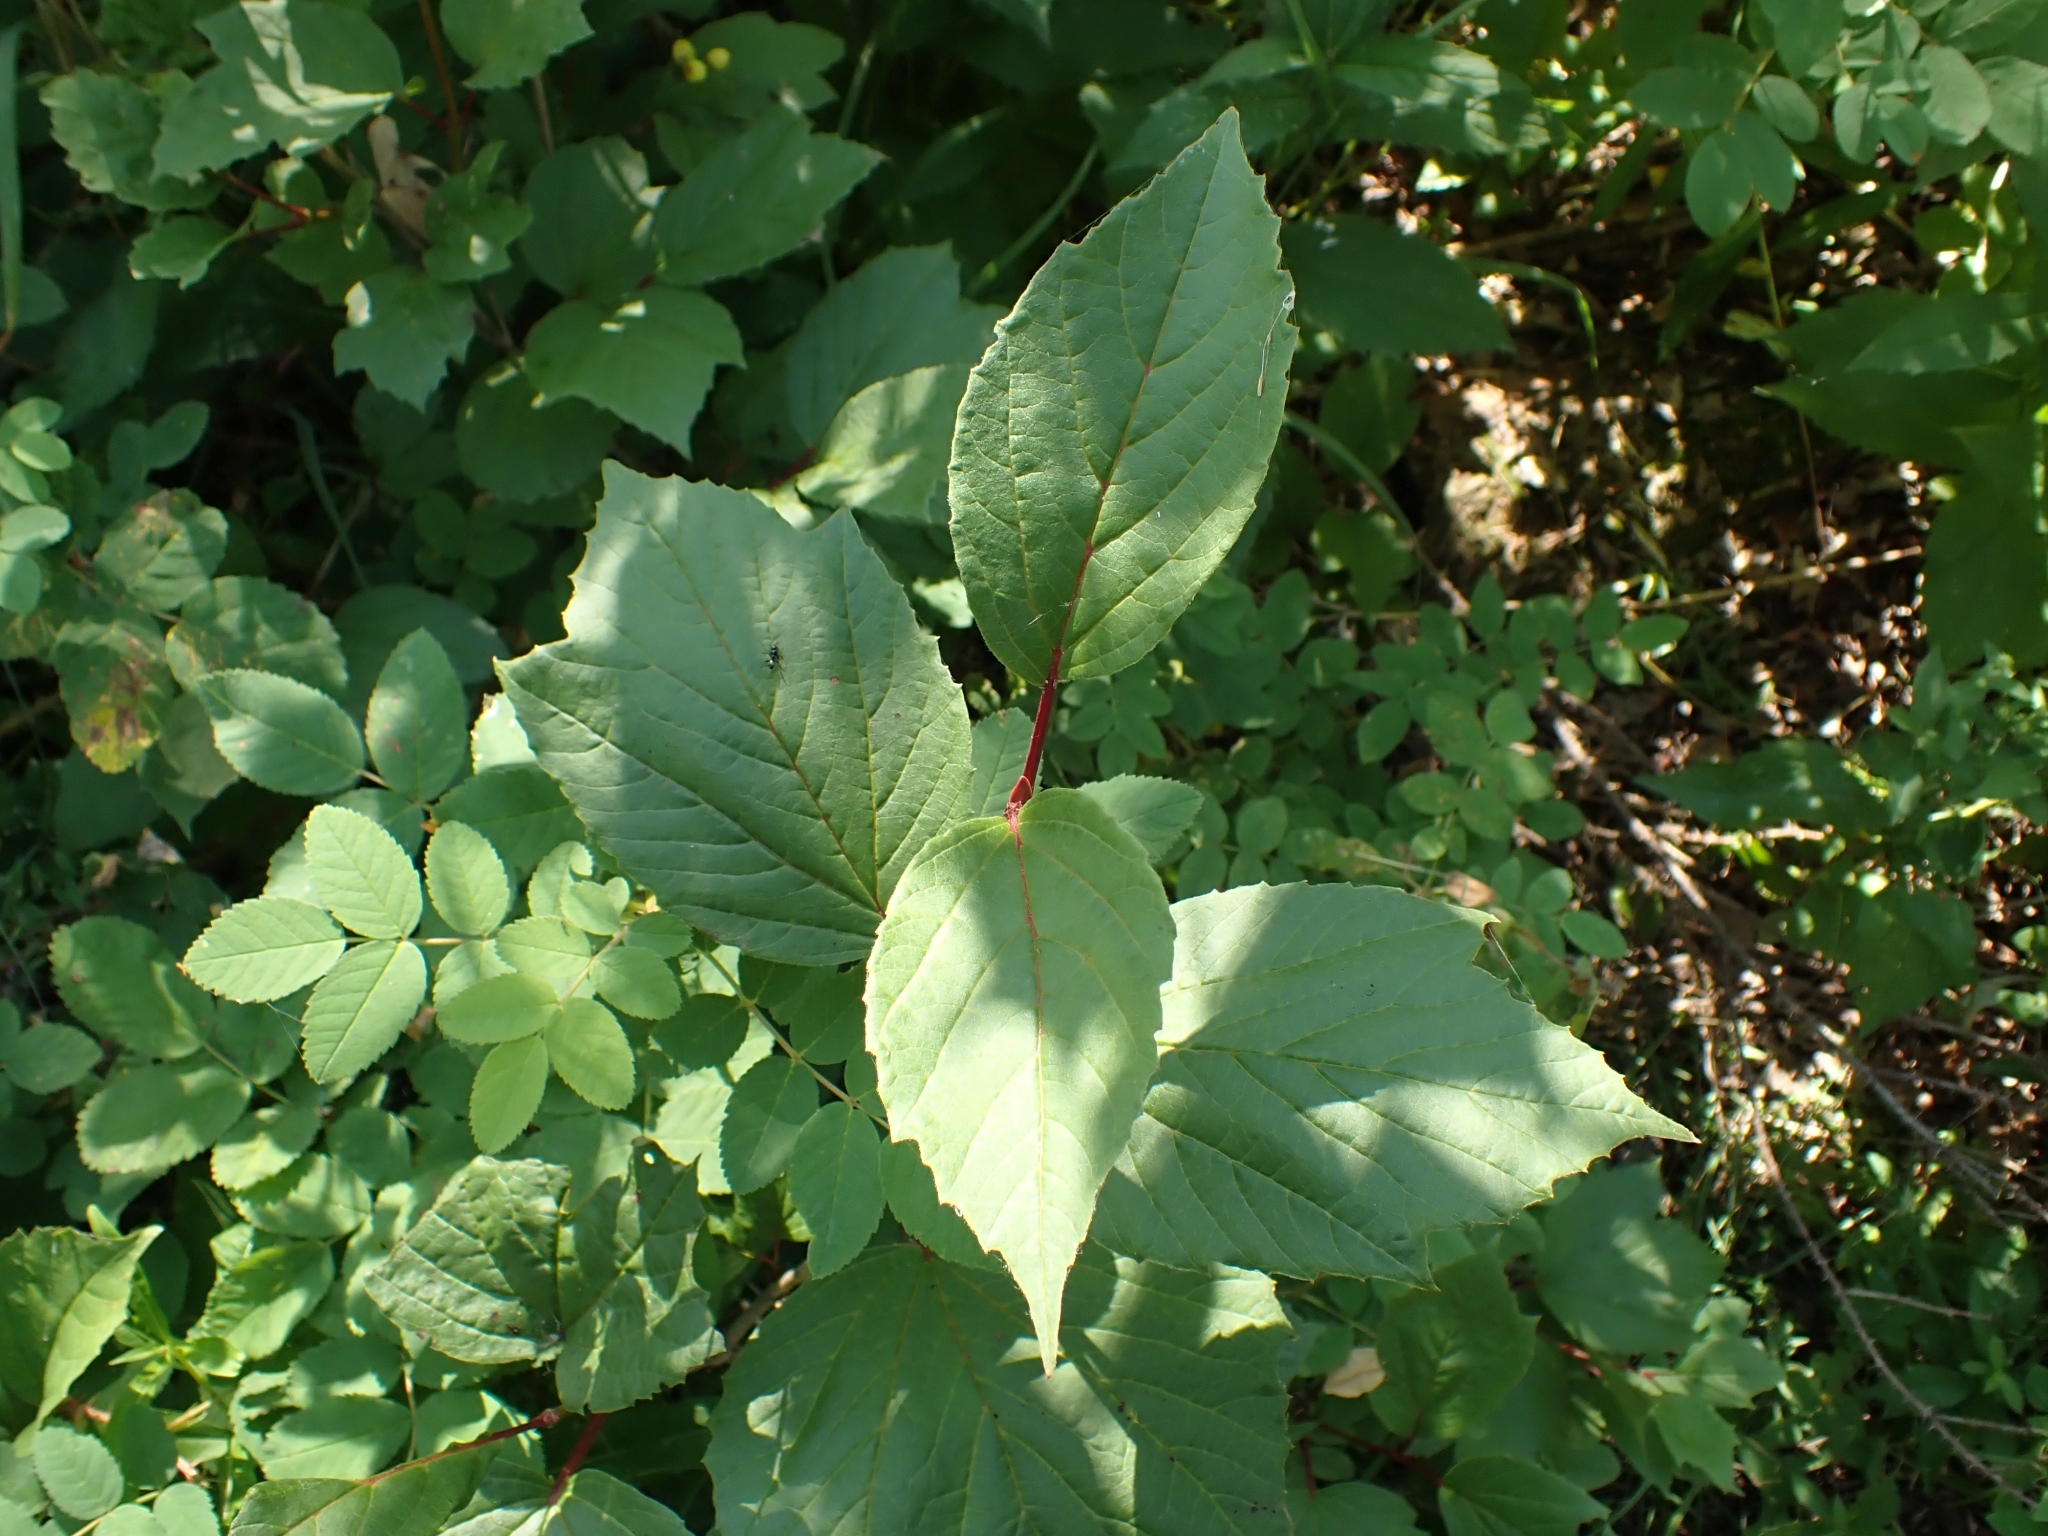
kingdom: Plantae
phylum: Tracheophyta
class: Magnoliopsida
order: Dipsacales
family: Viburnaceae
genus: Viburnum
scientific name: Viburnum edule
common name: Mooseberry
